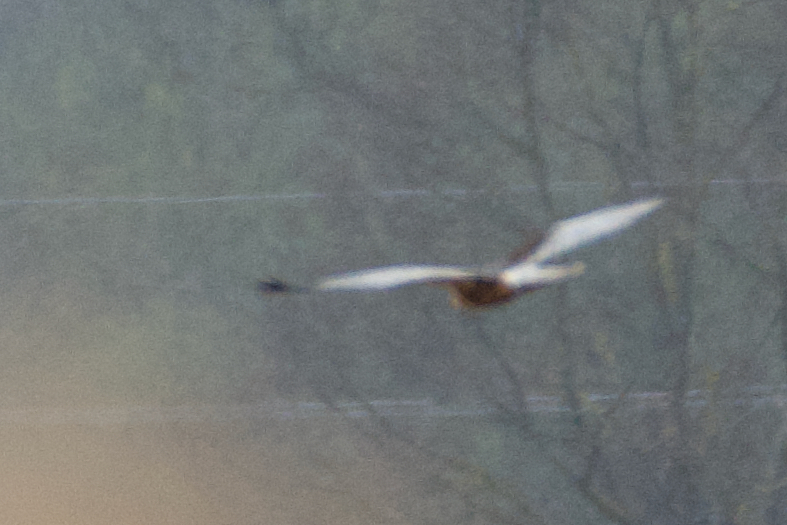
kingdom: Animalia
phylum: Chordata
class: Aves
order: Accipitriformes
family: Accipitridae
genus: Circus
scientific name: Circus aeruginosus
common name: Western marsh harrier
